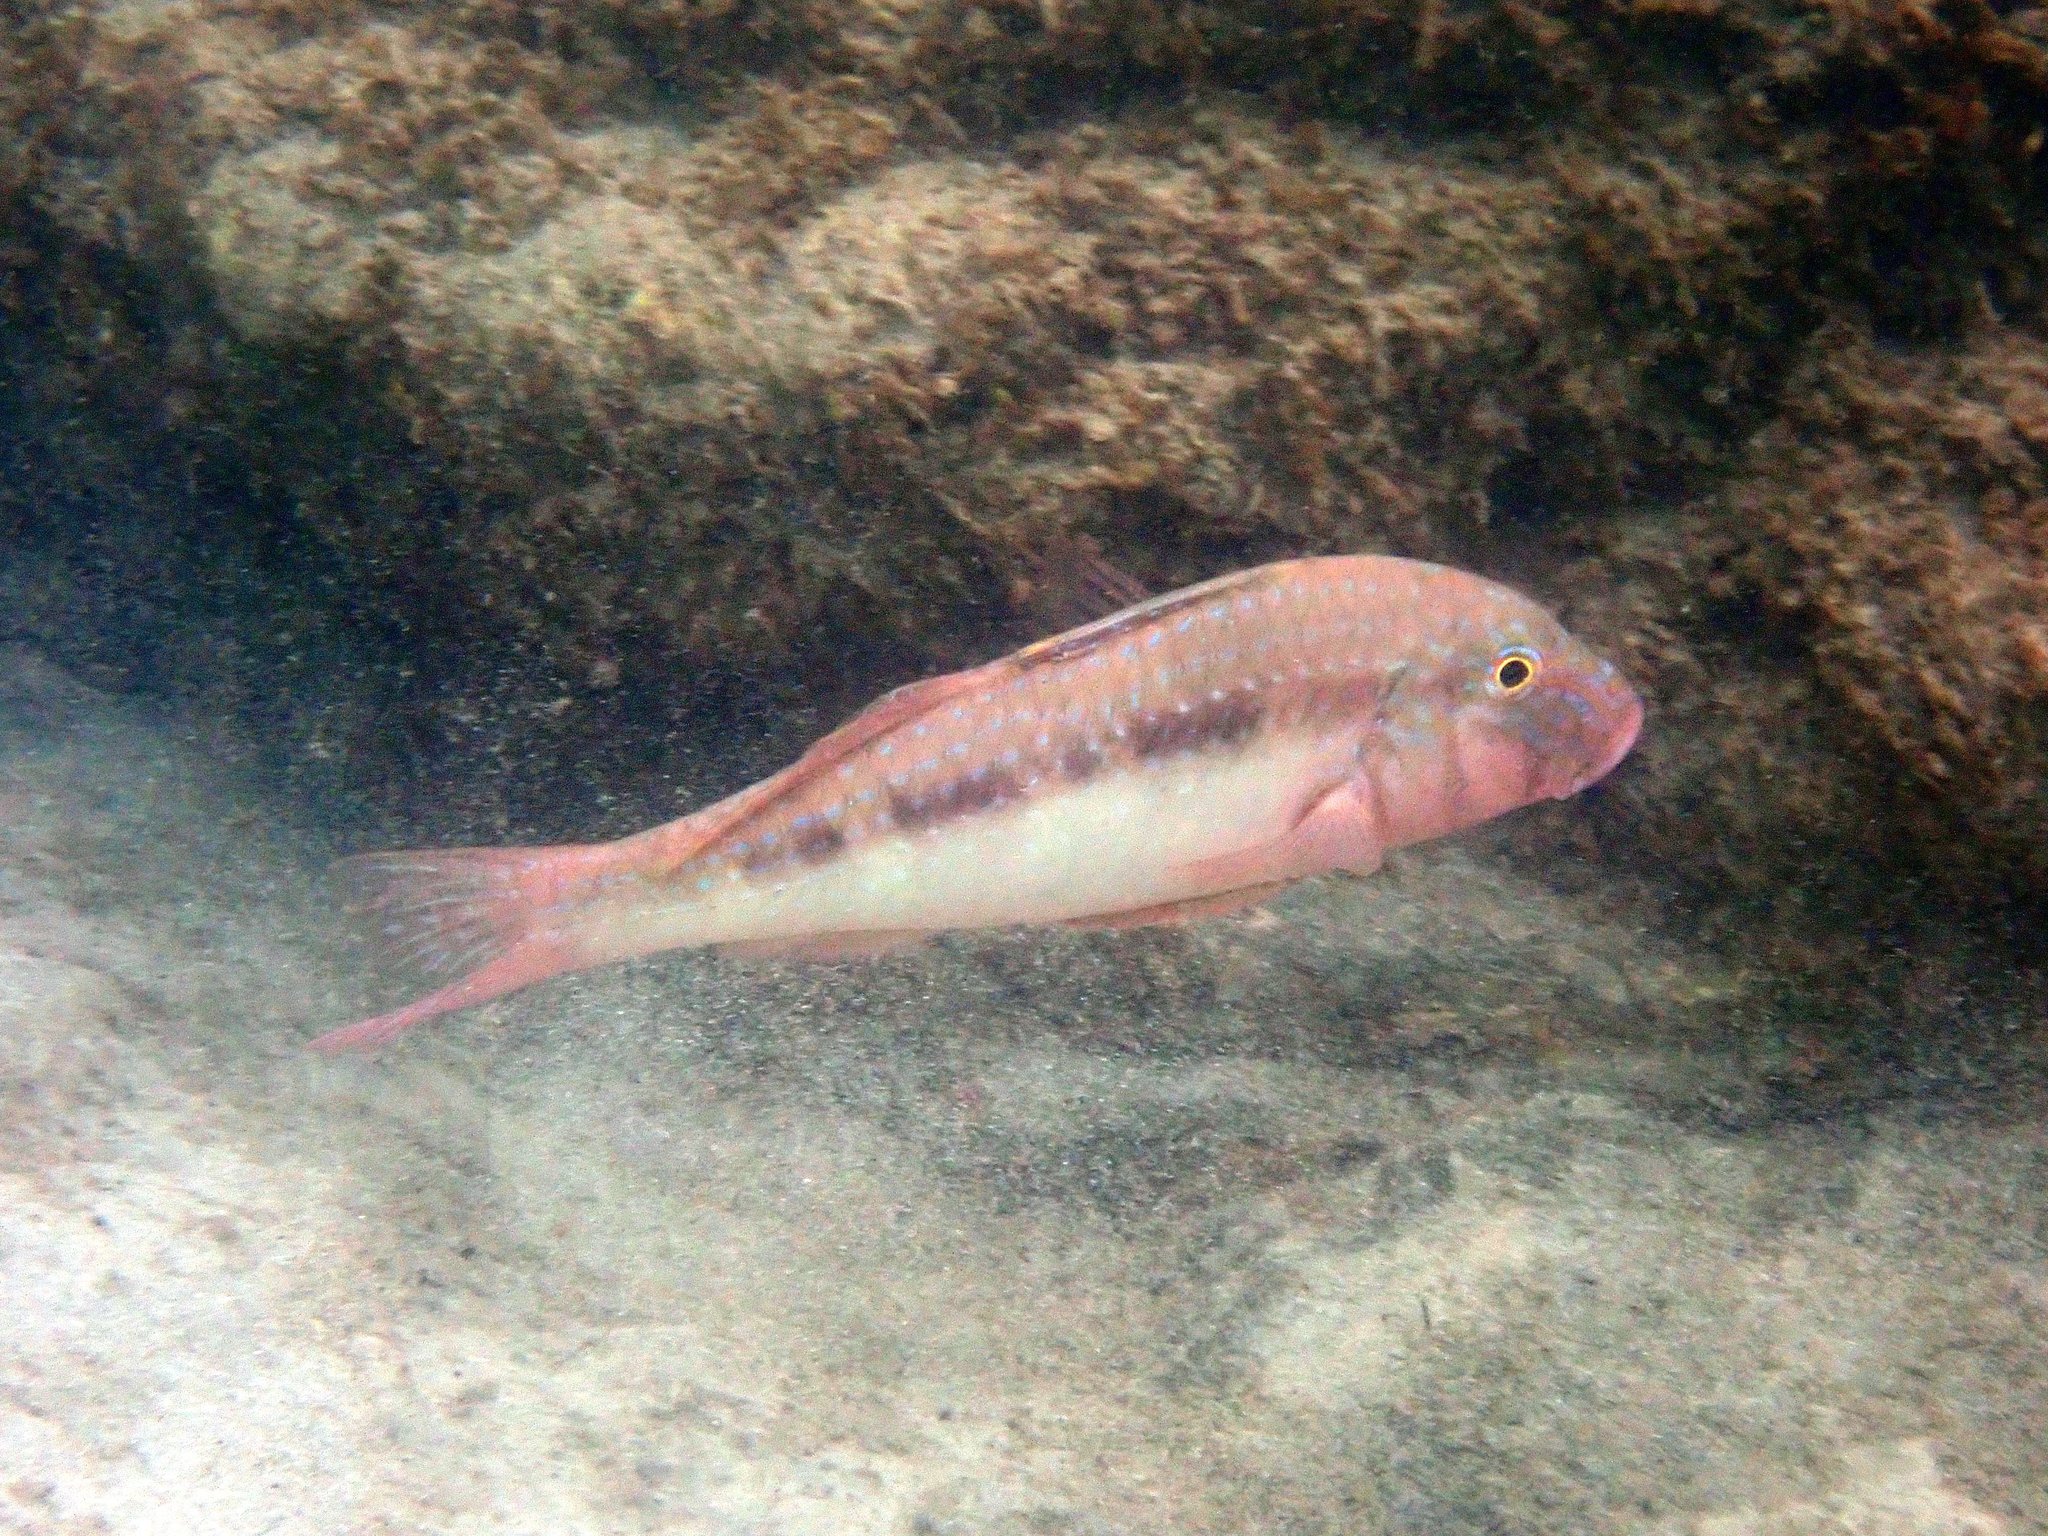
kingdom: Animalia
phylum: Chordata
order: Perciformes
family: Mullidae
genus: Upeneichthys
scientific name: Upeneichthys lineatus
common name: Red mullet
